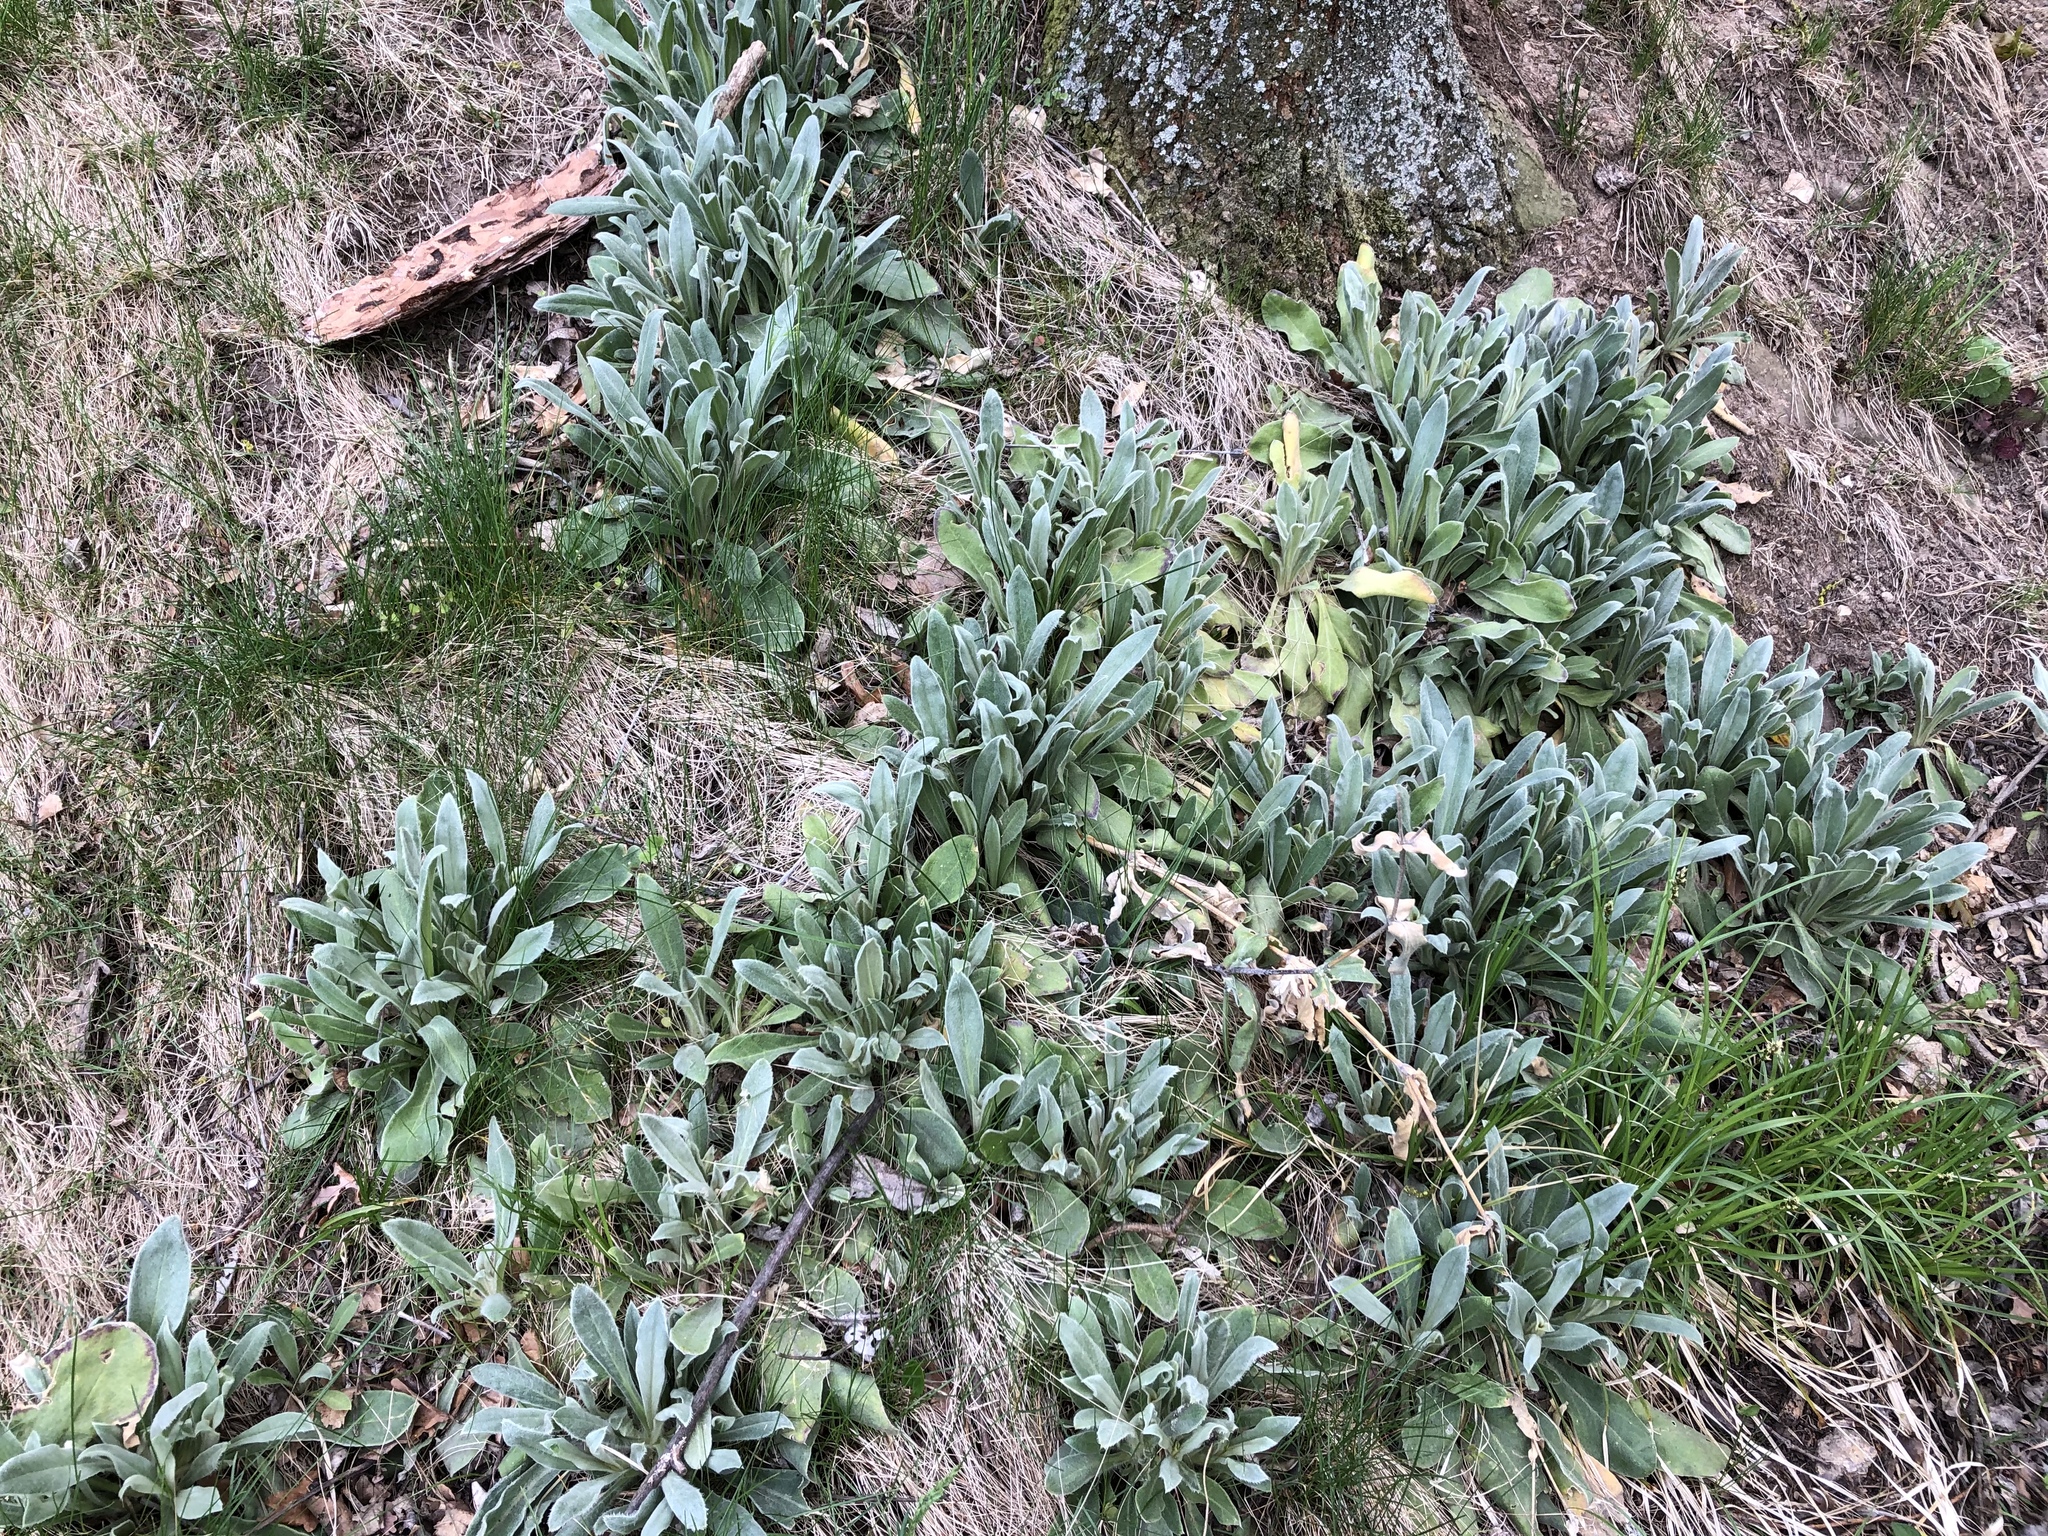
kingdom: Plantae
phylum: Tracheophyta
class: Magnoliopsida
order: Caryophyllales
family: Caryophyllaceae
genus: Silene
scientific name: Silene coronaria
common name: Rose campion
